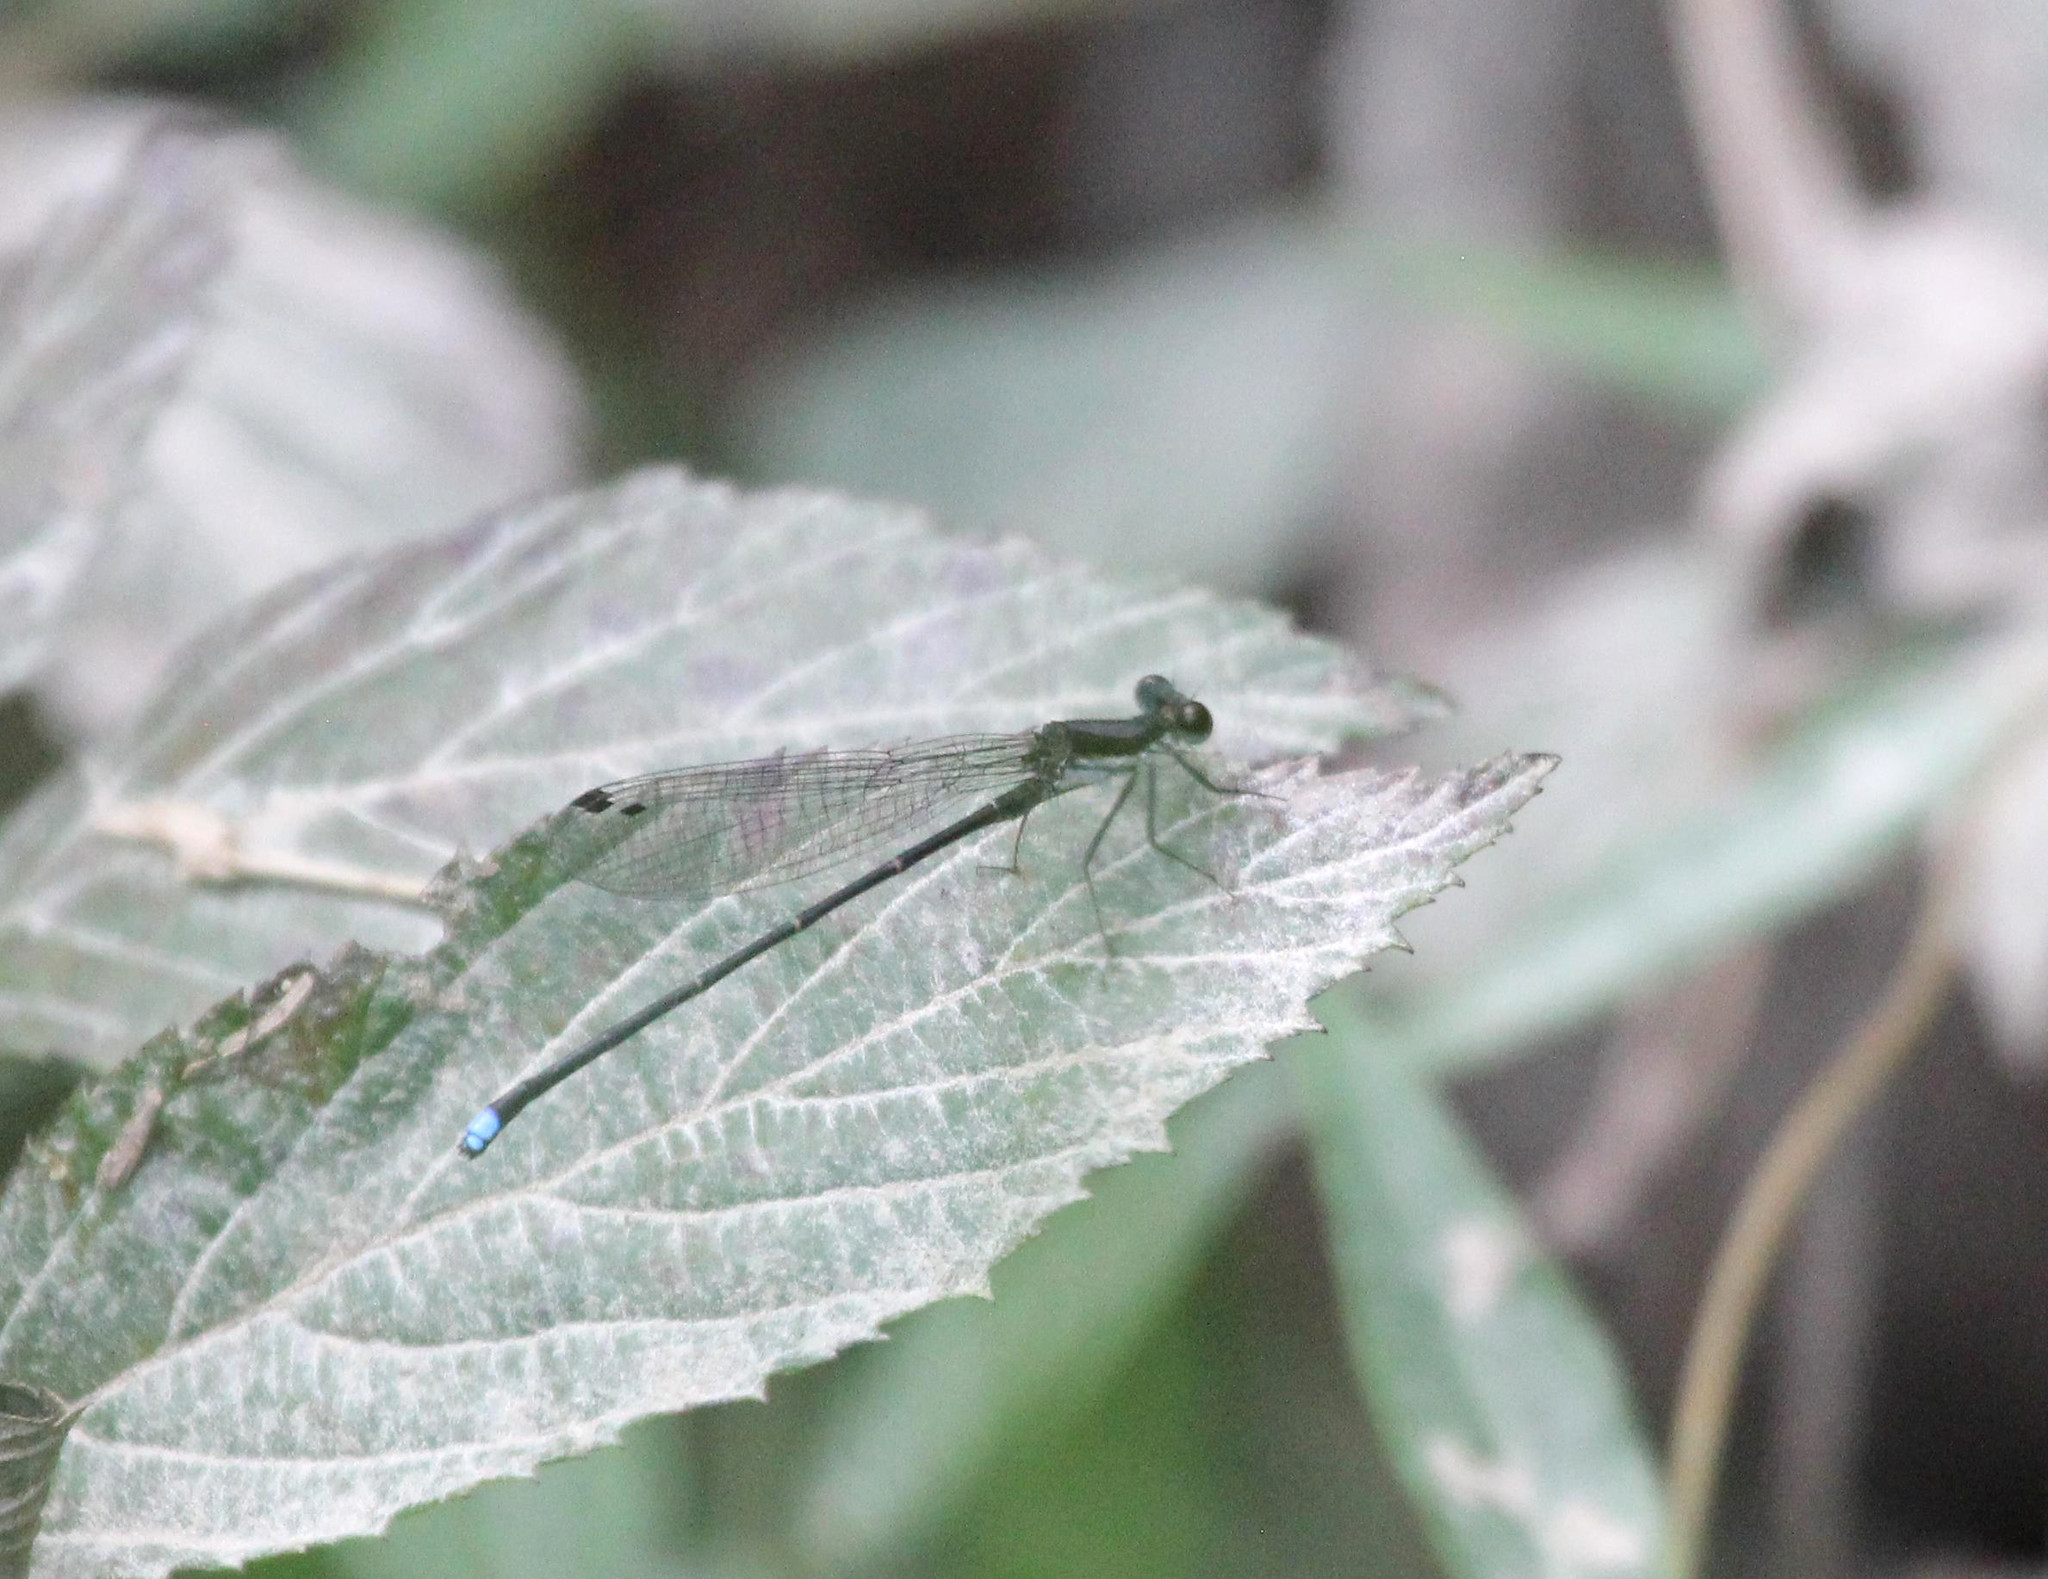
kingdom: Animalia
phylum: Arthropoda
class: Insecta
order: Odonata
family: Coenagrionidae
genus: Argia
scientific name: Argia tibialis
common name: Blue-tipped dancer
